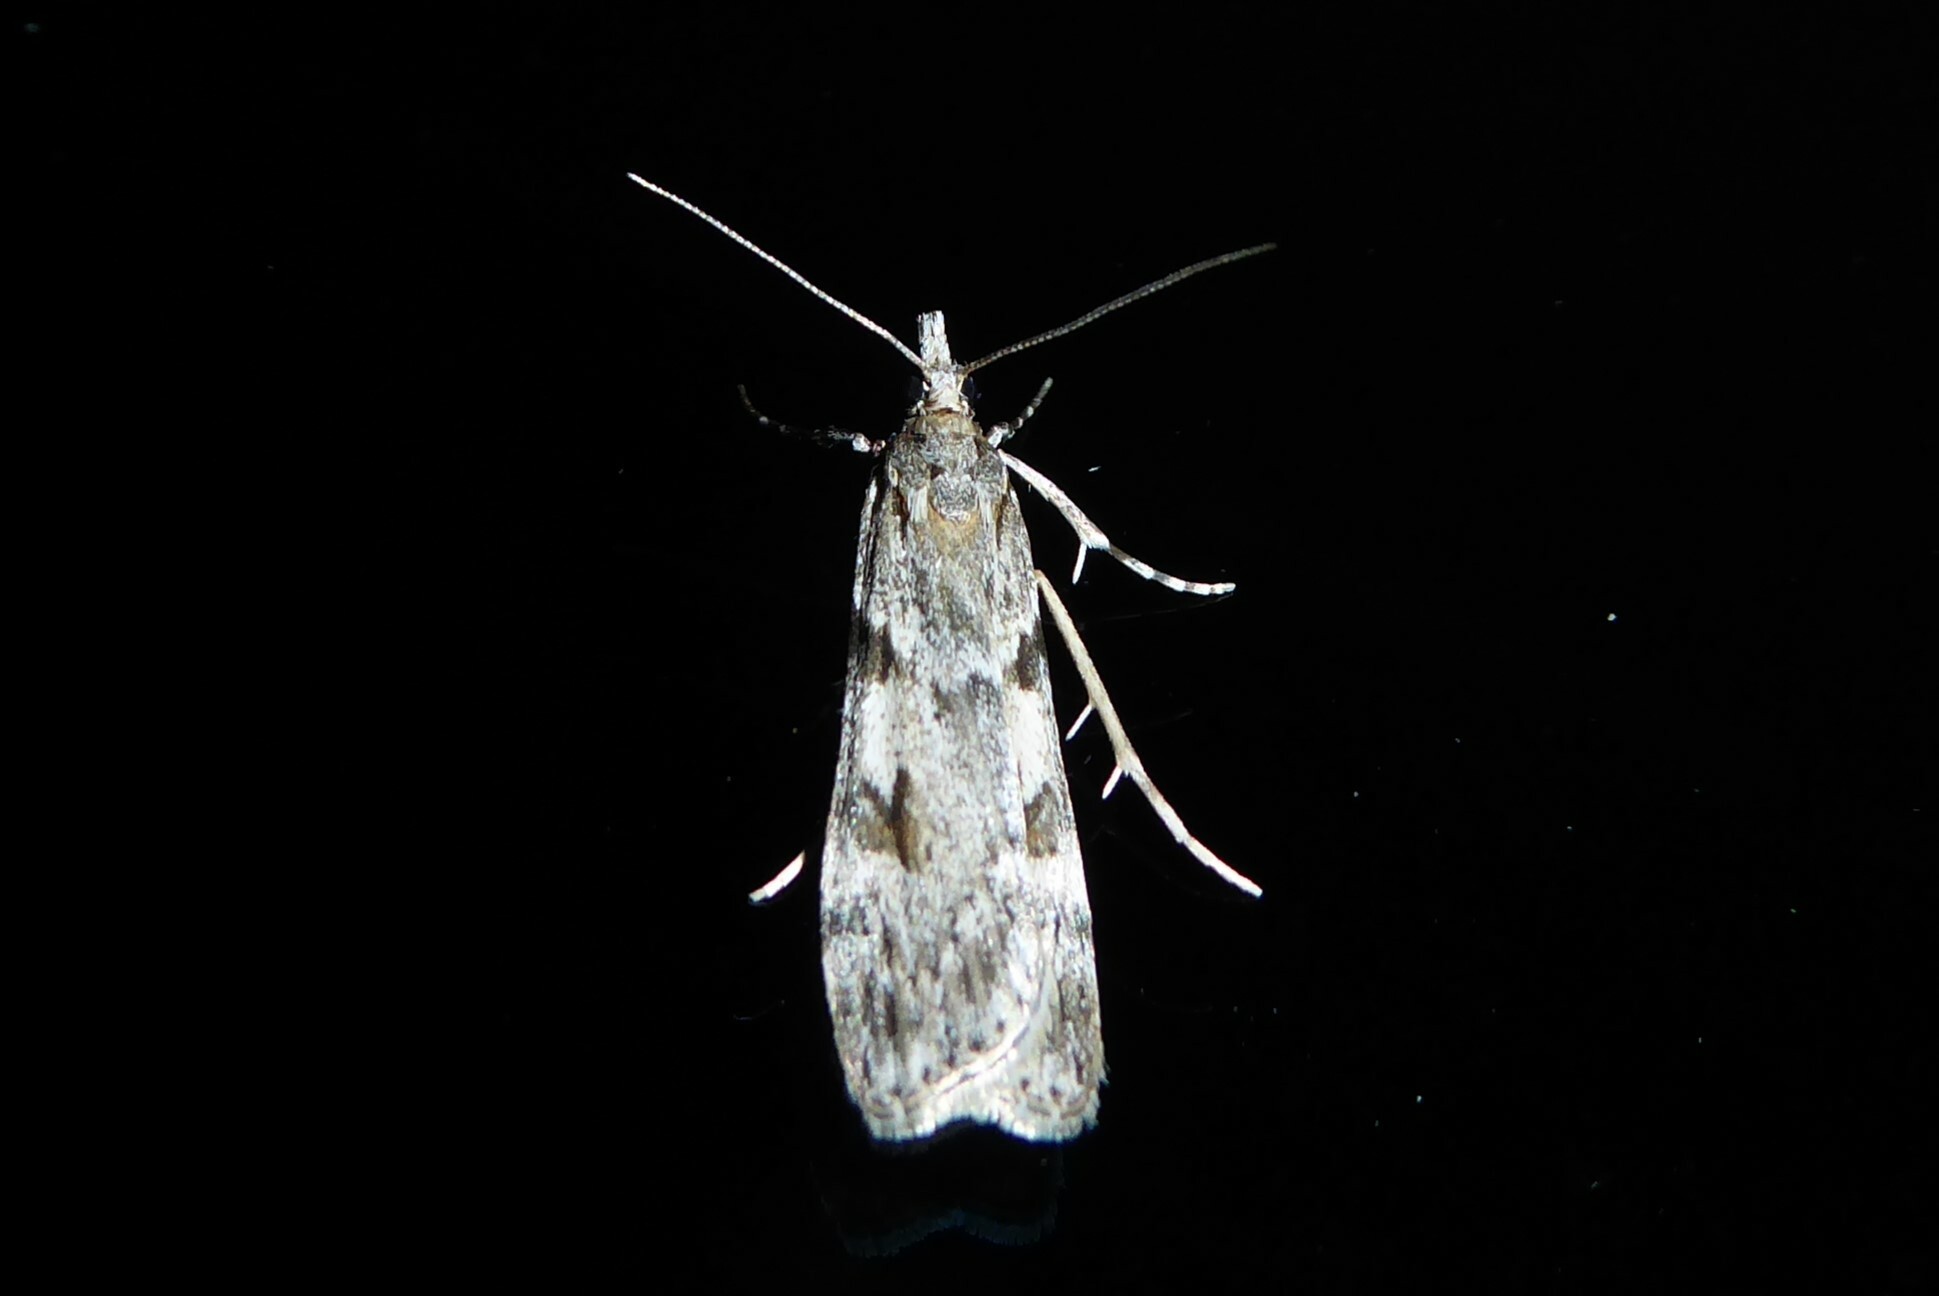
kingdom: Animalia
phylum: Arthropoda
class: Insecta
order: Lepidoptera
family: Crambidae
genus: Scoparia
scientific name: Scoparia halopis
